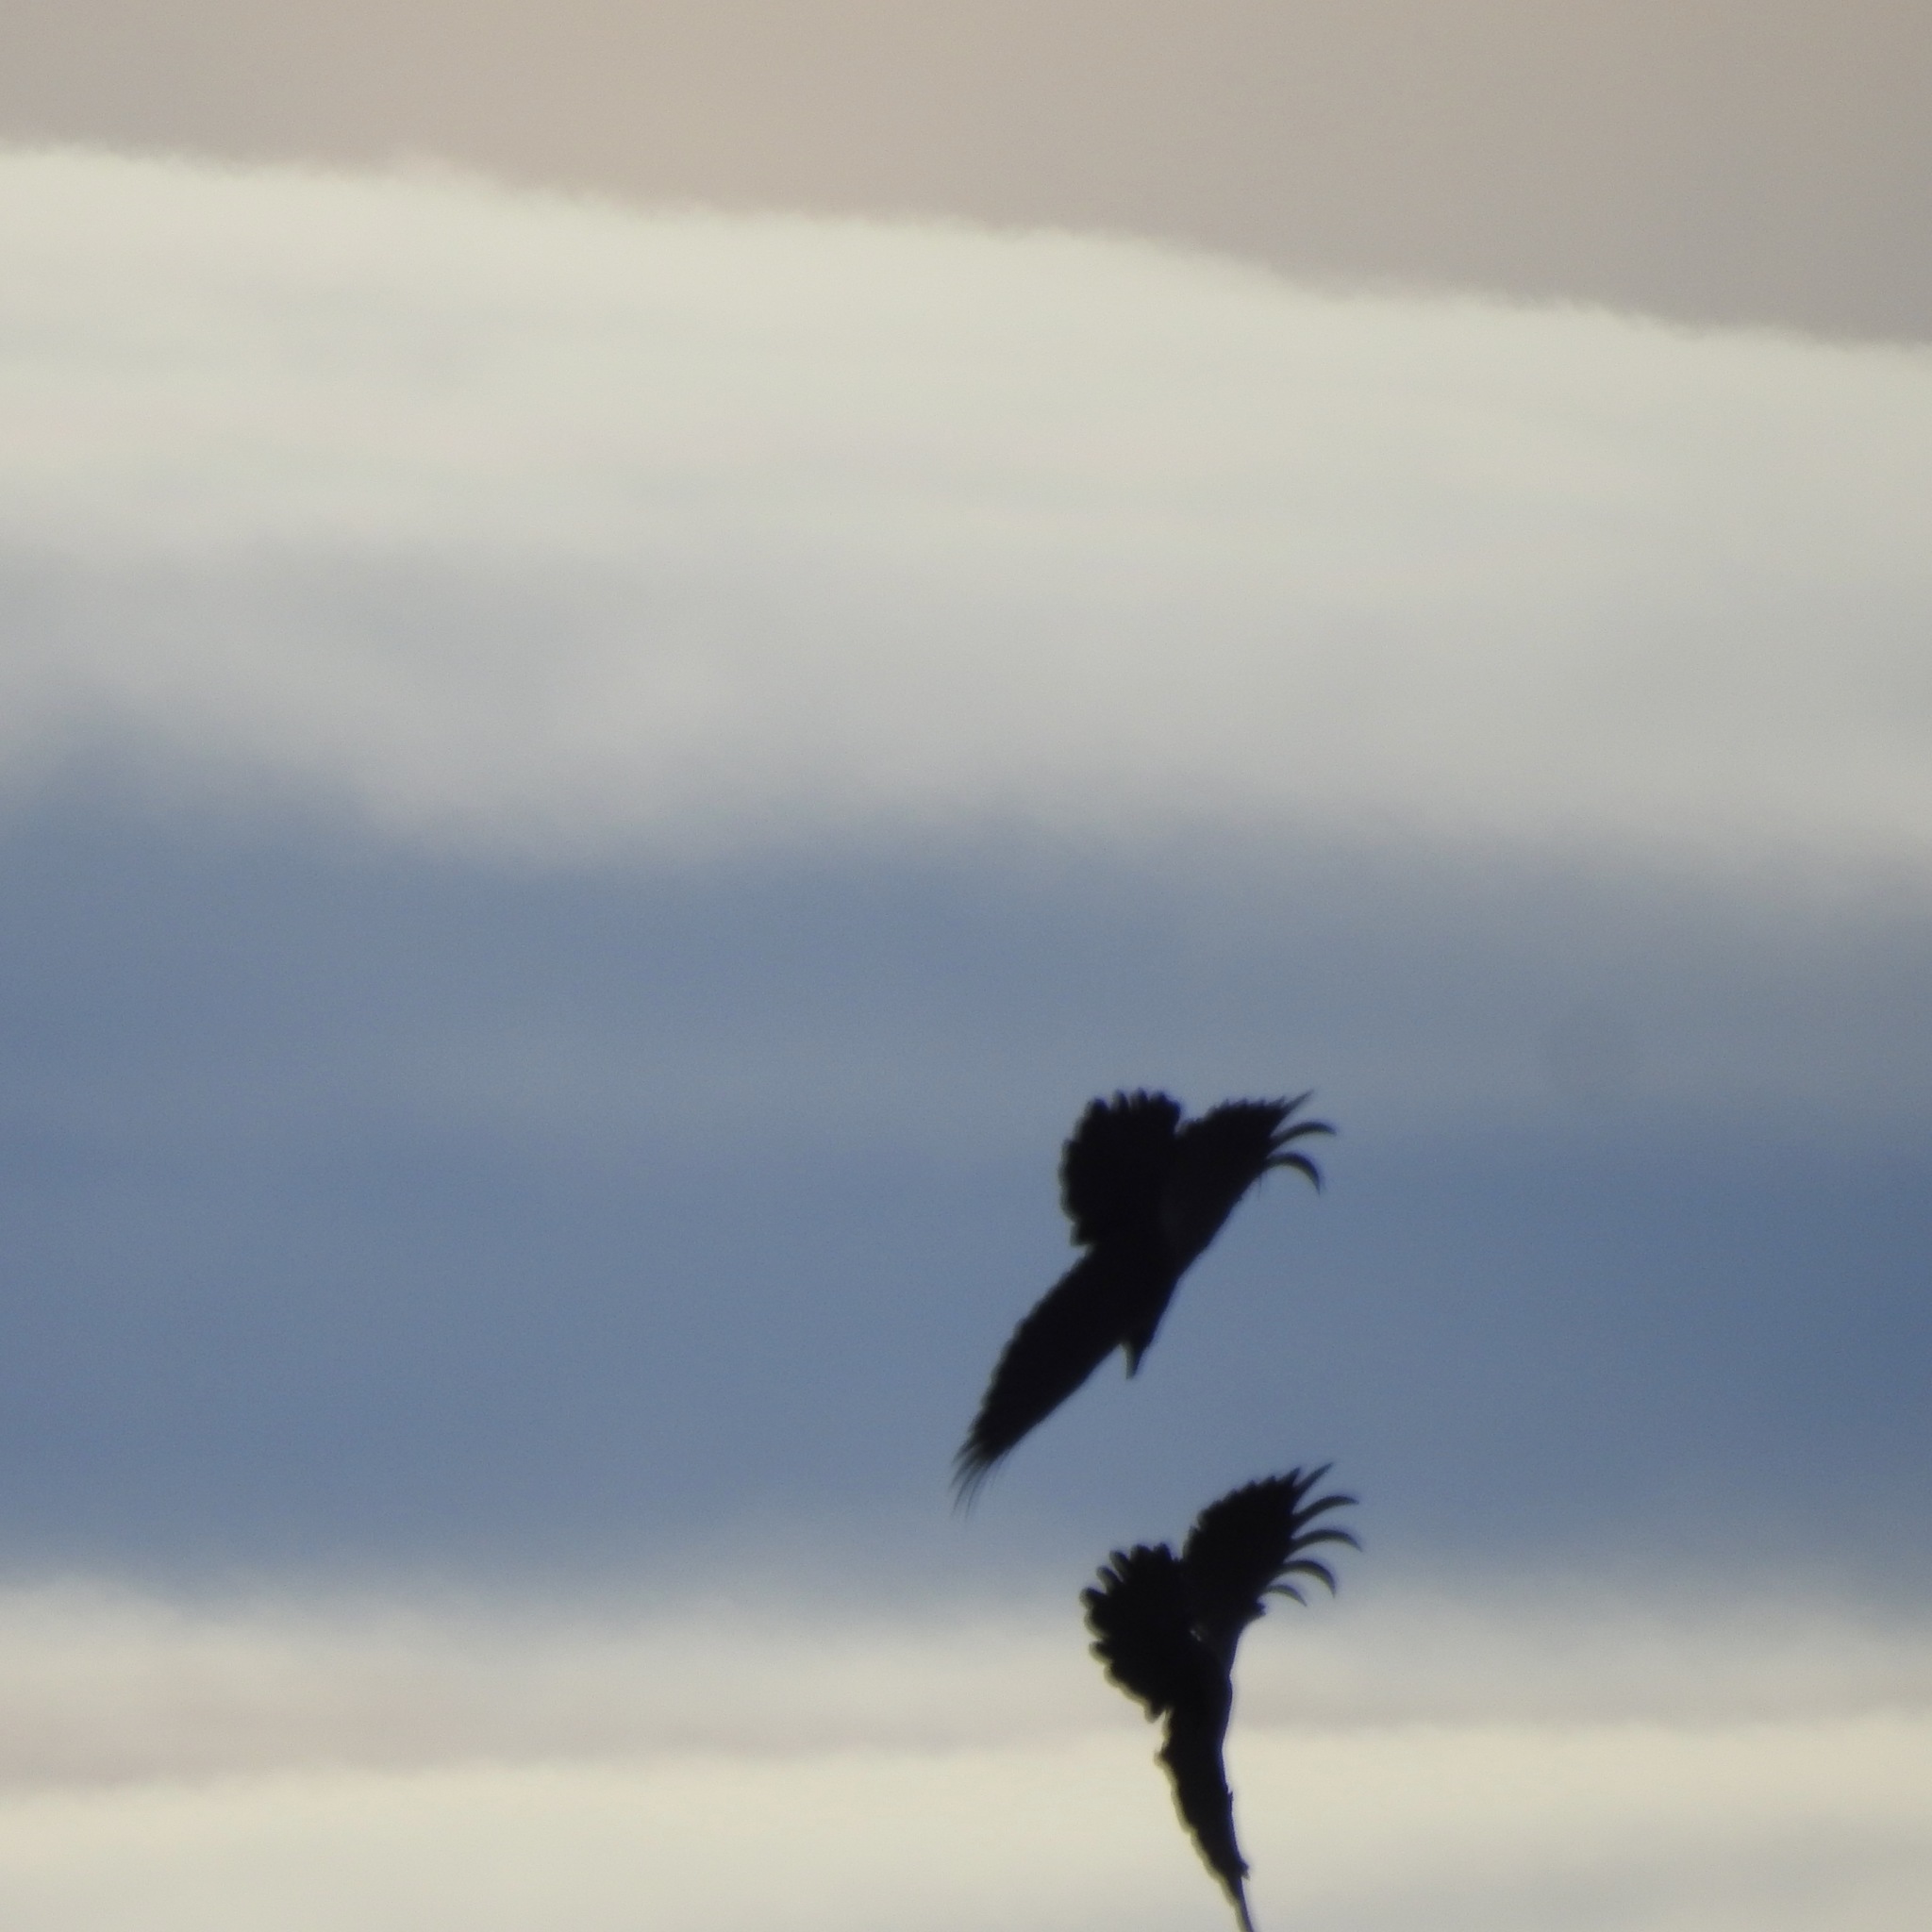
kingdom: Animalia
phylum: Chordata
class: Aves
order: Passeriformes
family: Corvidae
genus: Corvus
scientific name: Corvus corax
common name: Common raven
